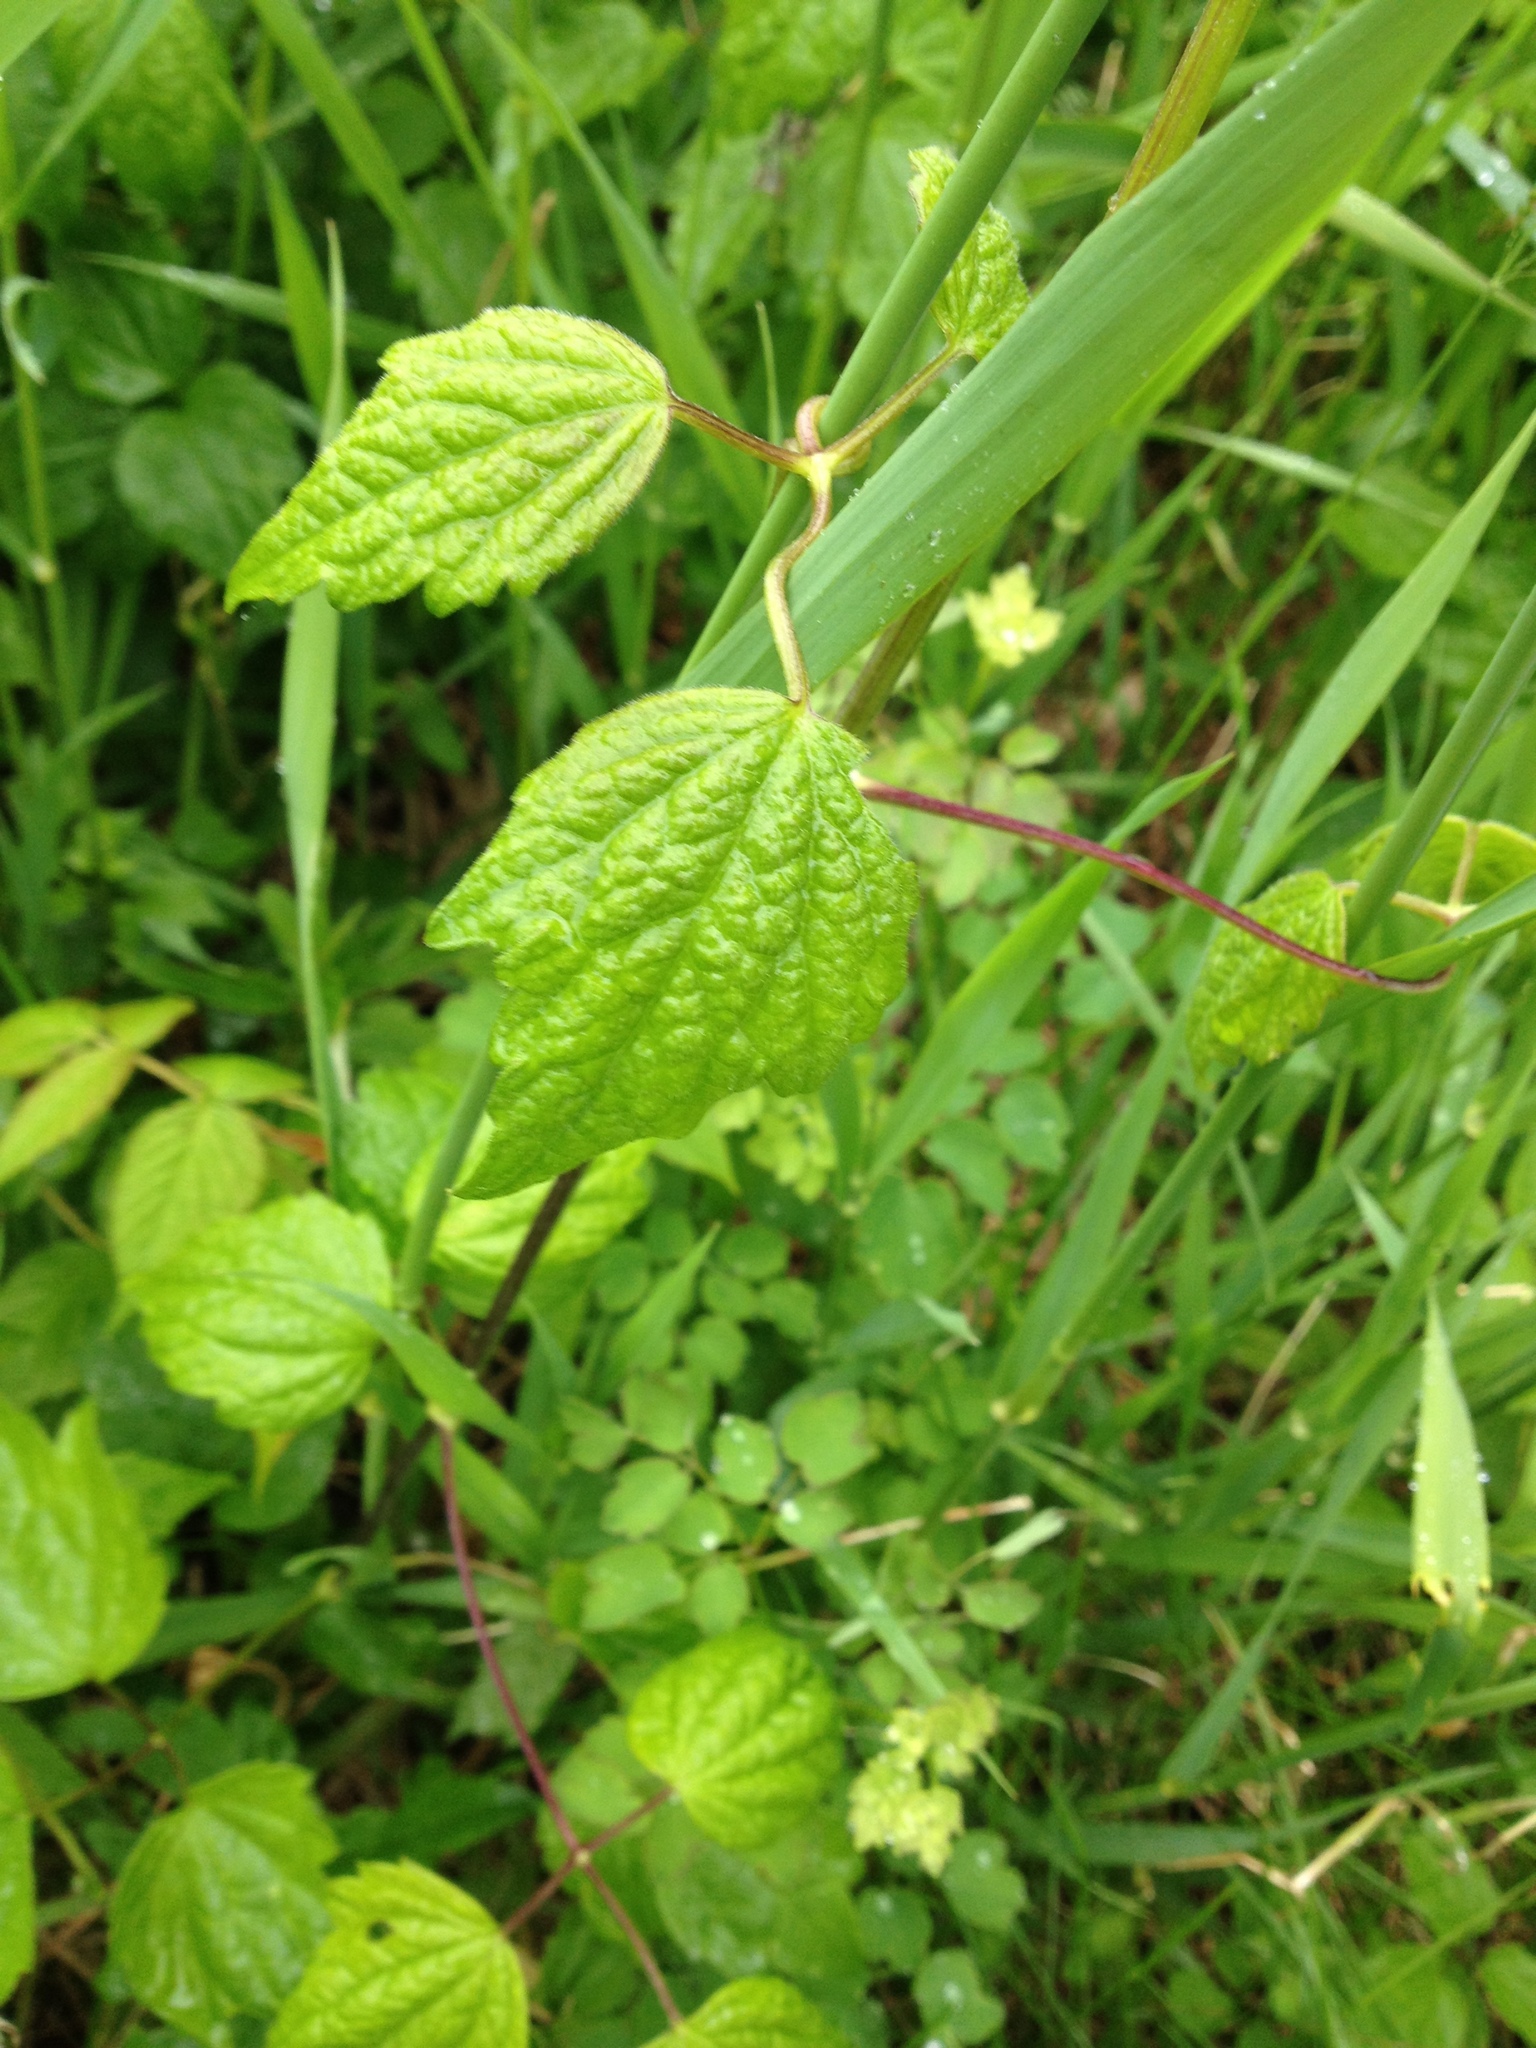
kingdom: Plantae
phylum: Tracheophyta
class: Magnoliopsida
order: Ranunculales
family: Ranunculaceae
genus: Clematis
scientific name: Clematis virginiana
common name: Virgin's-bower
